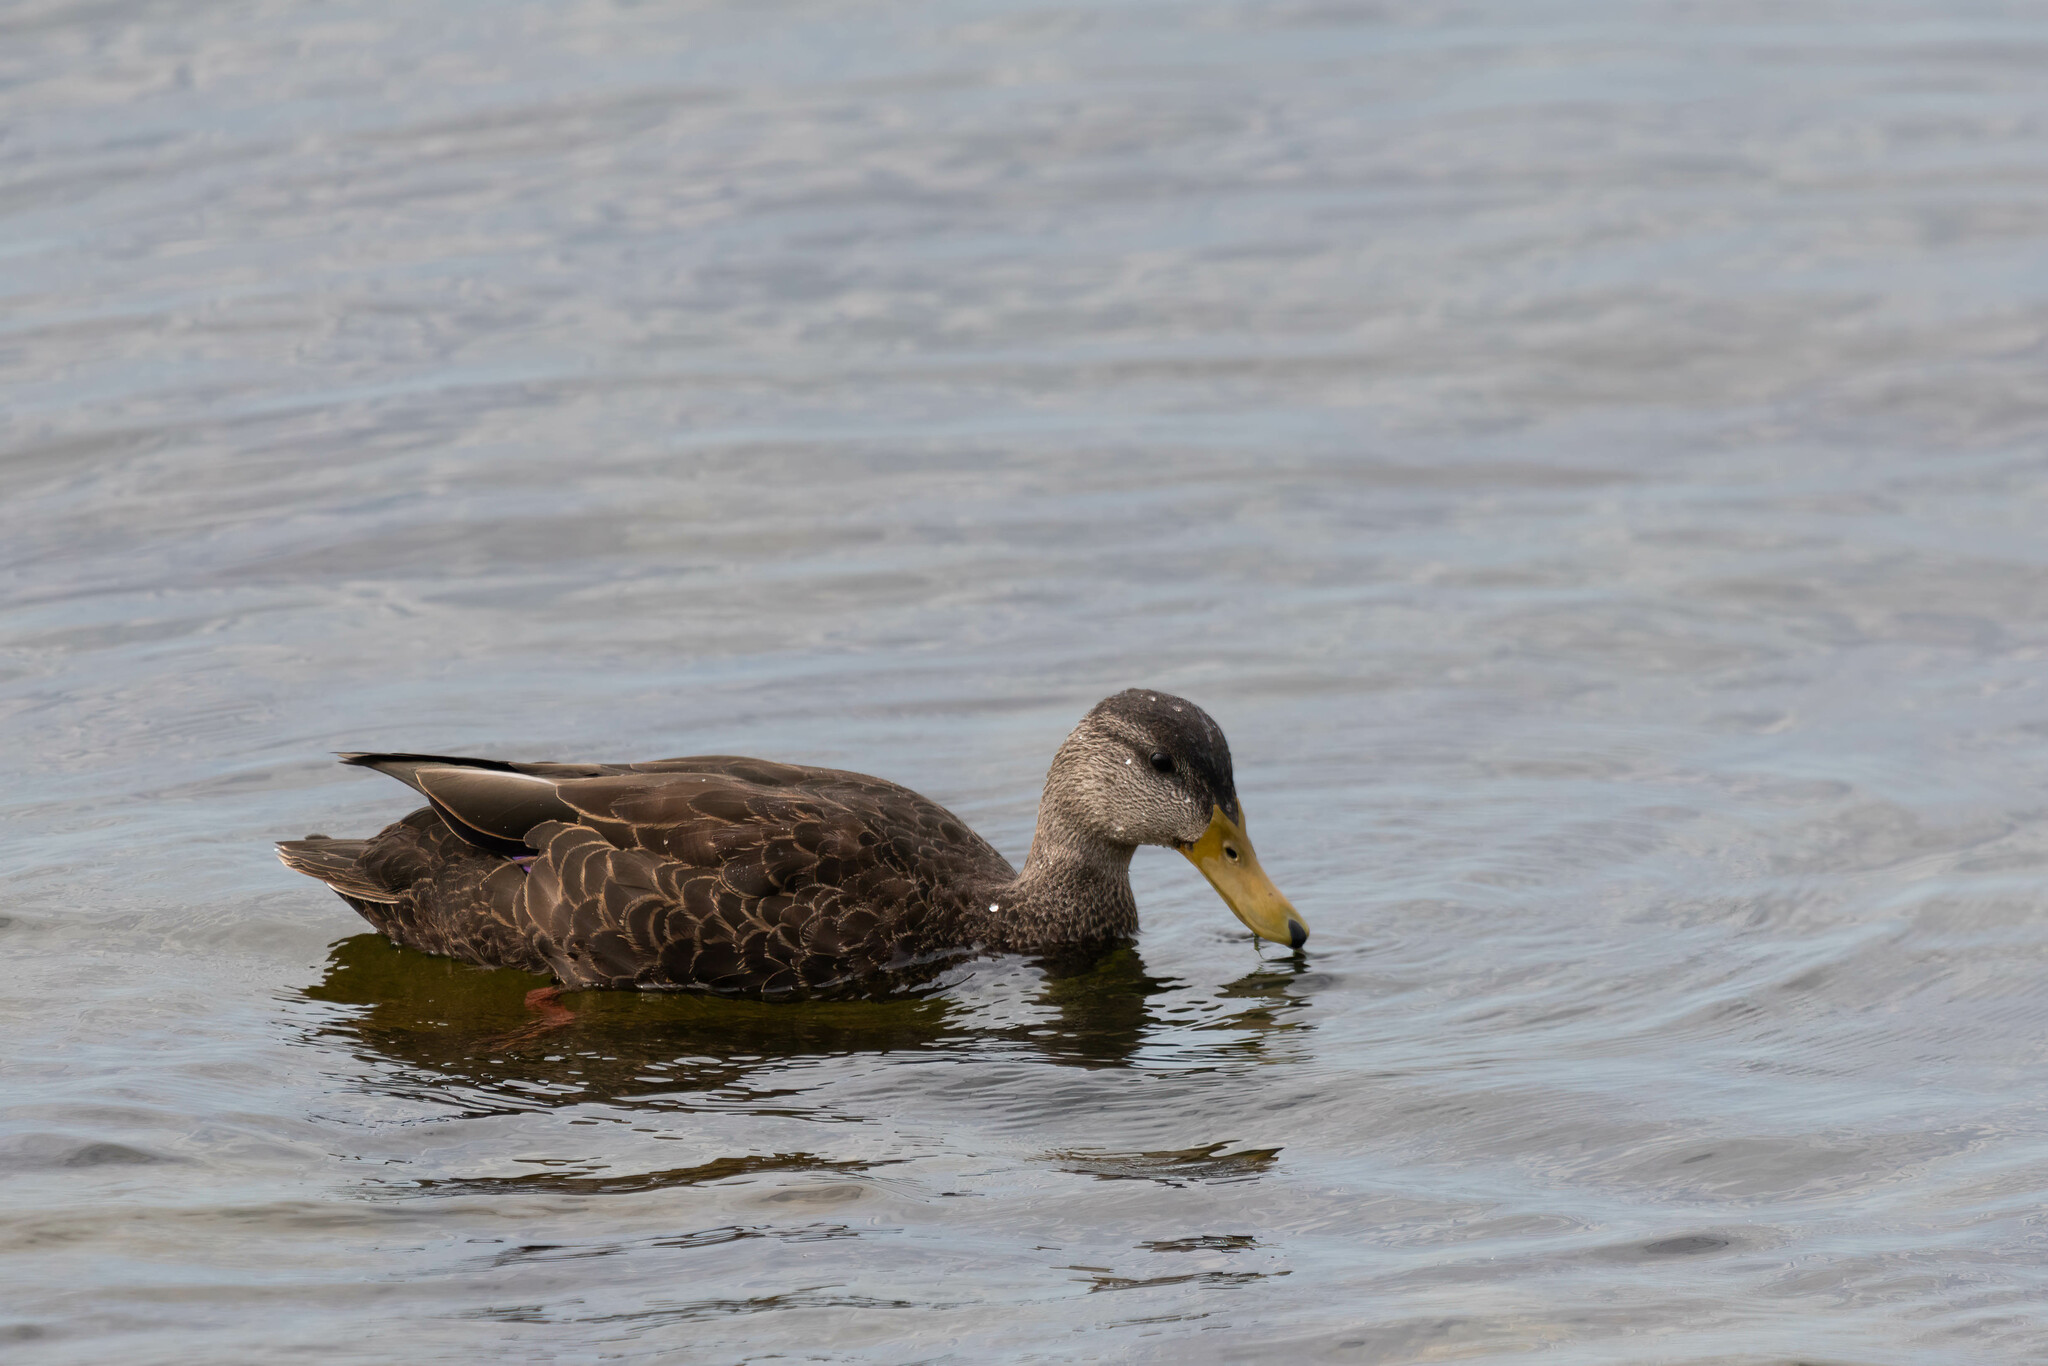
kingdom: Animalia
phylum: Chordata
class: Aves
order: Anseriformes
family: Anatidae
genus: Anas
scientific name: Anas rubripes
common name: American black duck
